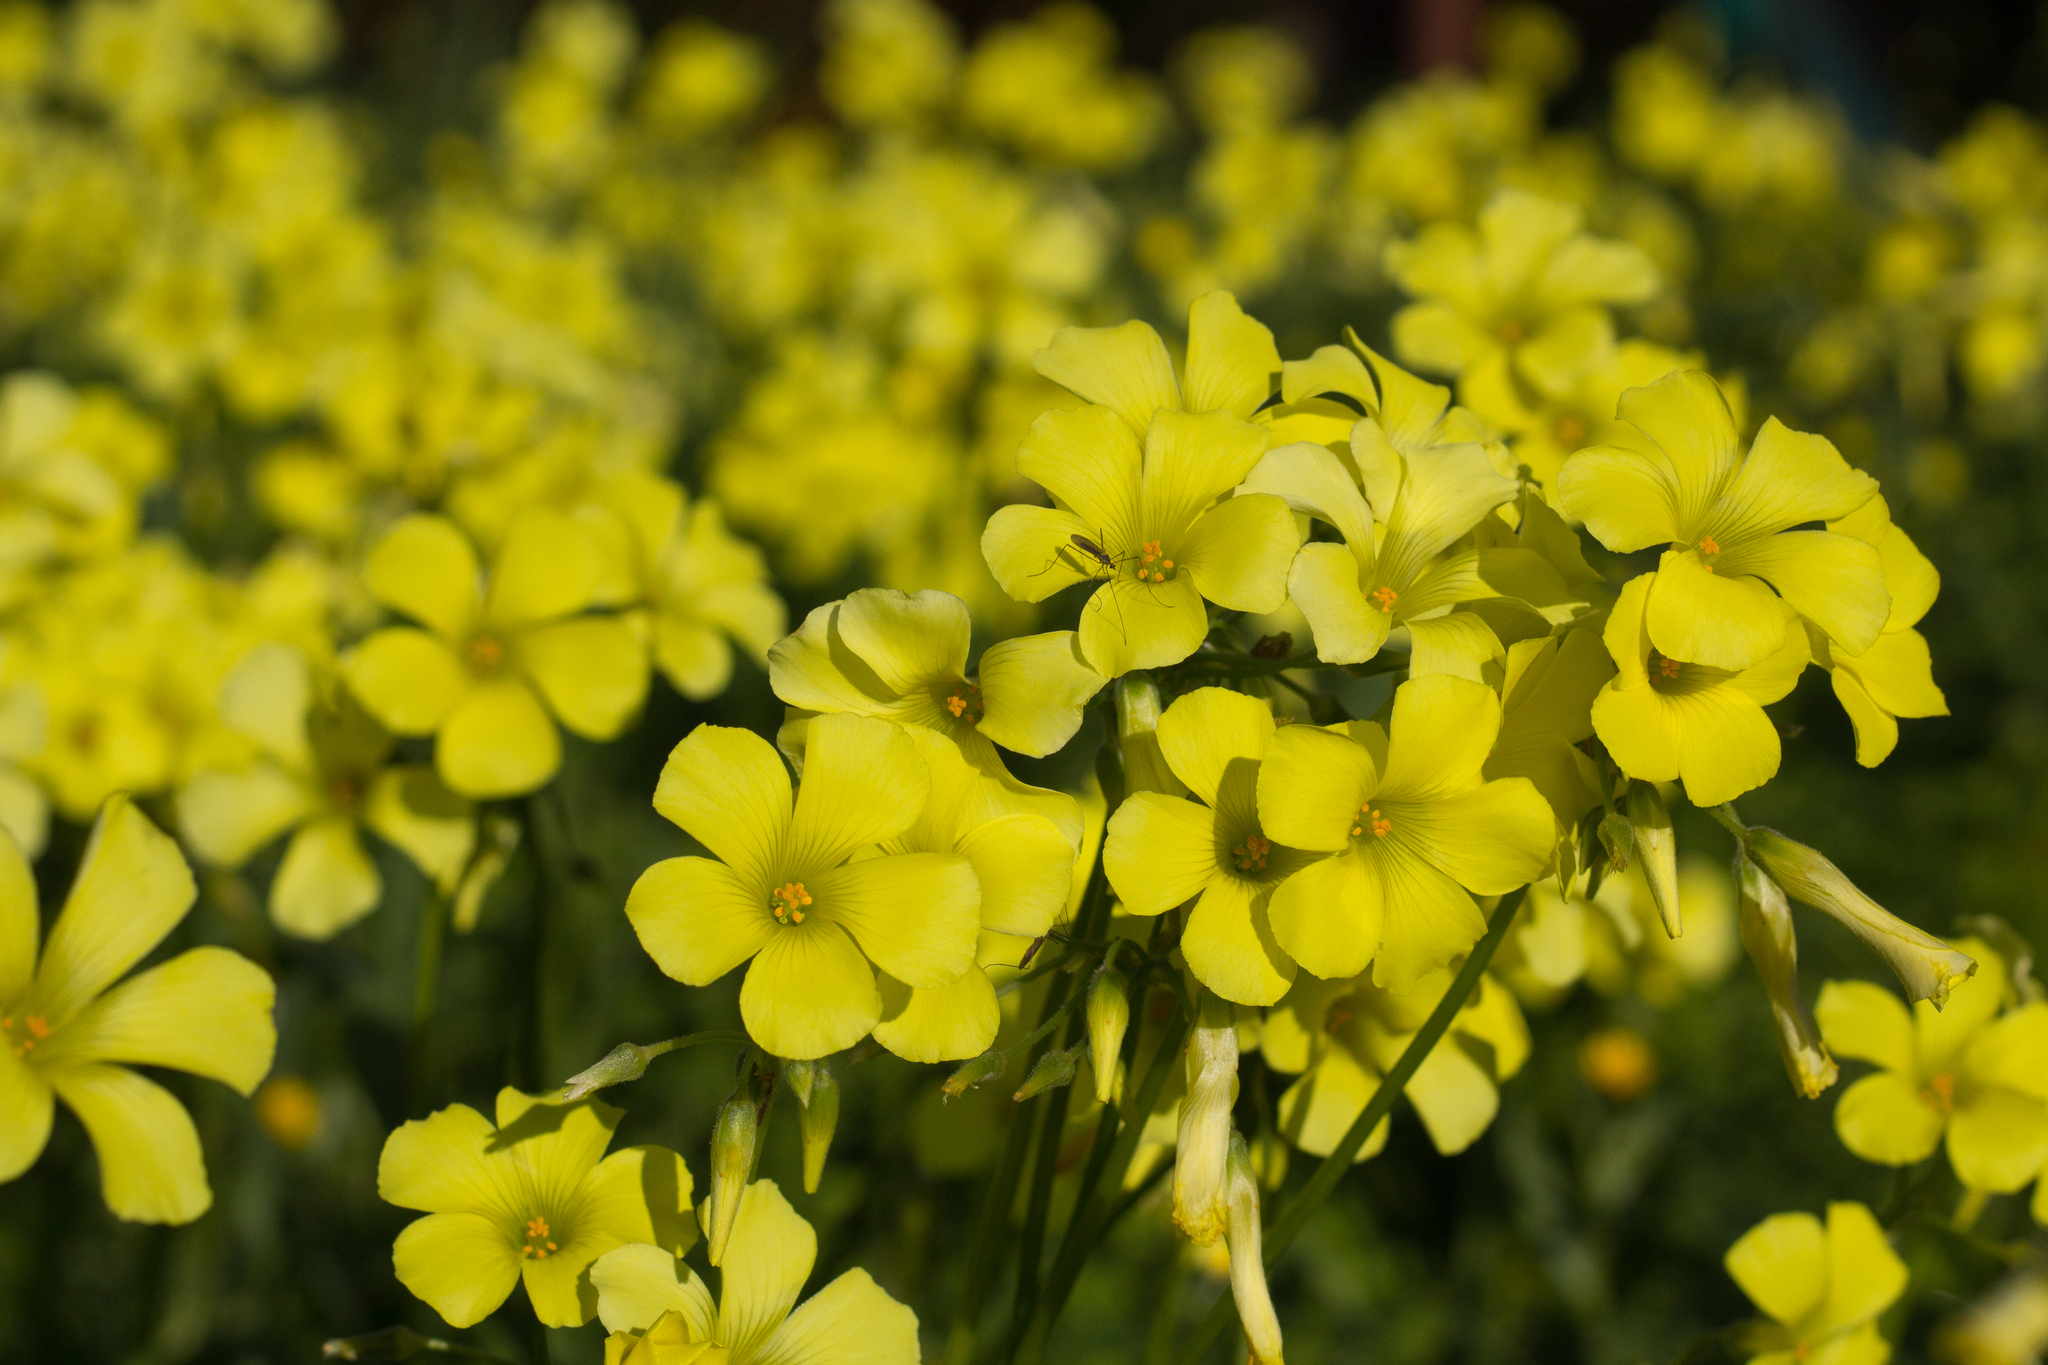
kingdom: Plantae
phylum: Tracheophyta
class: Magnoliopsida
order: Oxalidales
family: Oxalidaceae
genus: Oxalis
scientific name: Oxalis pes-caprae
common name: Bermuda-buttercup
